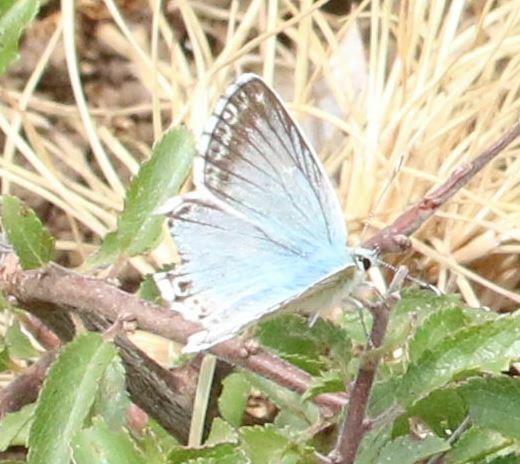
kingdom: Animalia
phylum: Arthropoda
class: Insecta
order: Lepidoptera
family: Lycaenidae
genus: Lysandra
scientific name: Lysandra hispana
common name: Provence chalkhill blue
